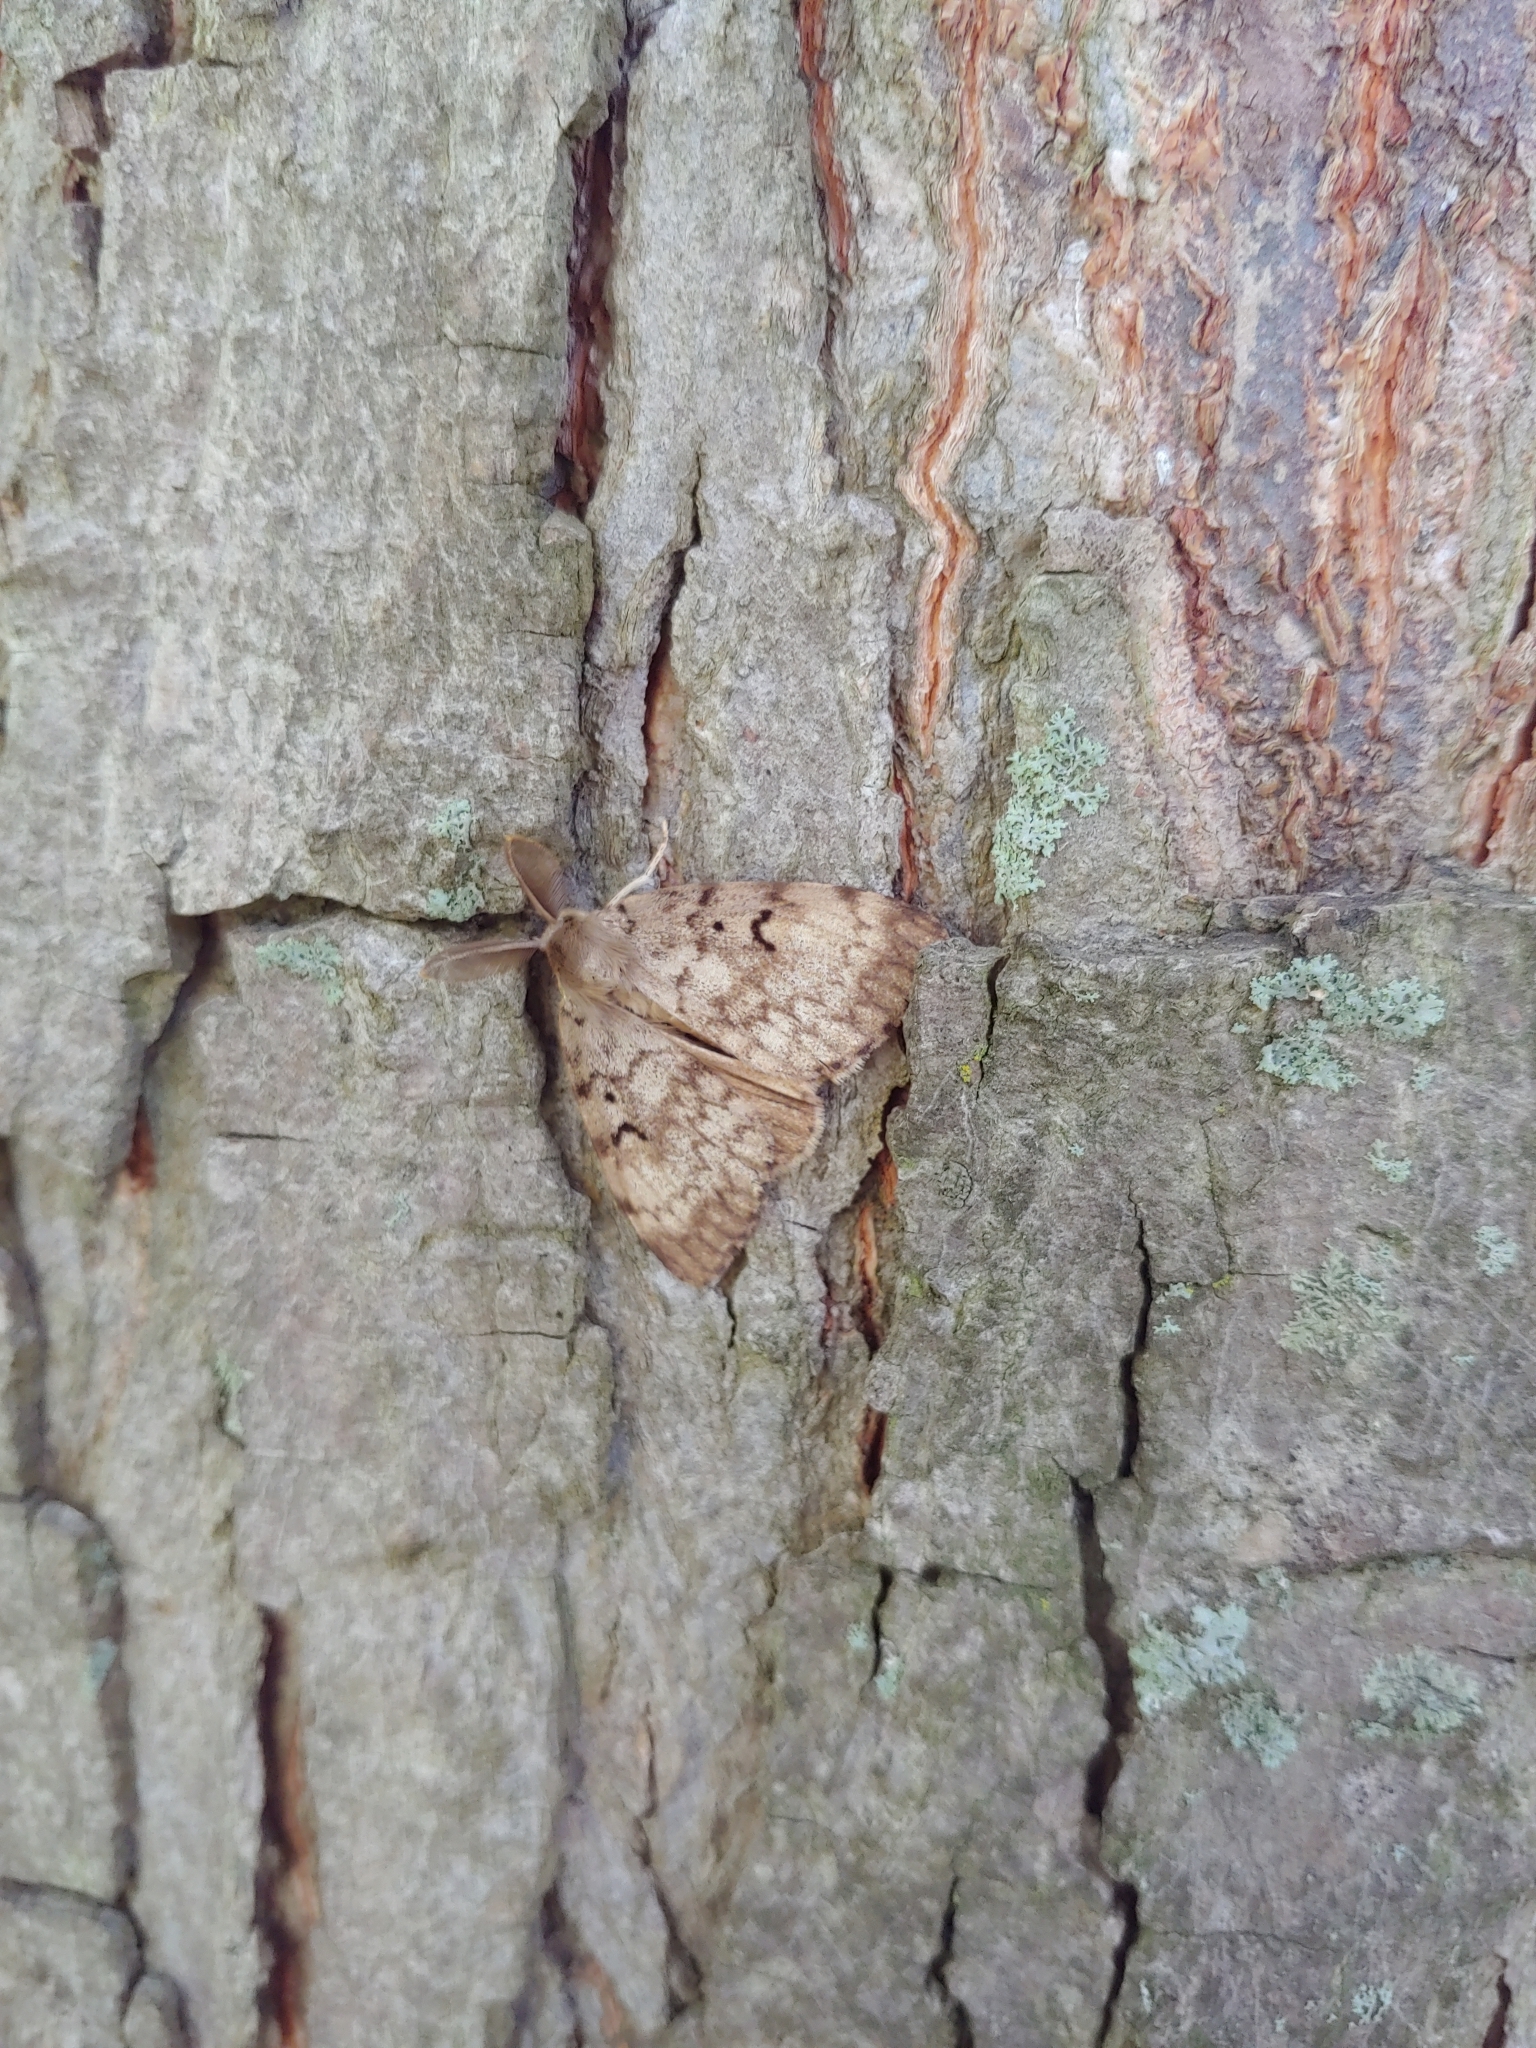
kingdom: Animalia
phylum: Arthropoda
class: Insecta
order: Lepidoptera
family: Erebidae
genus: Lymantria
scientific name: Lymantria dispar
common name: Gypsy moth
